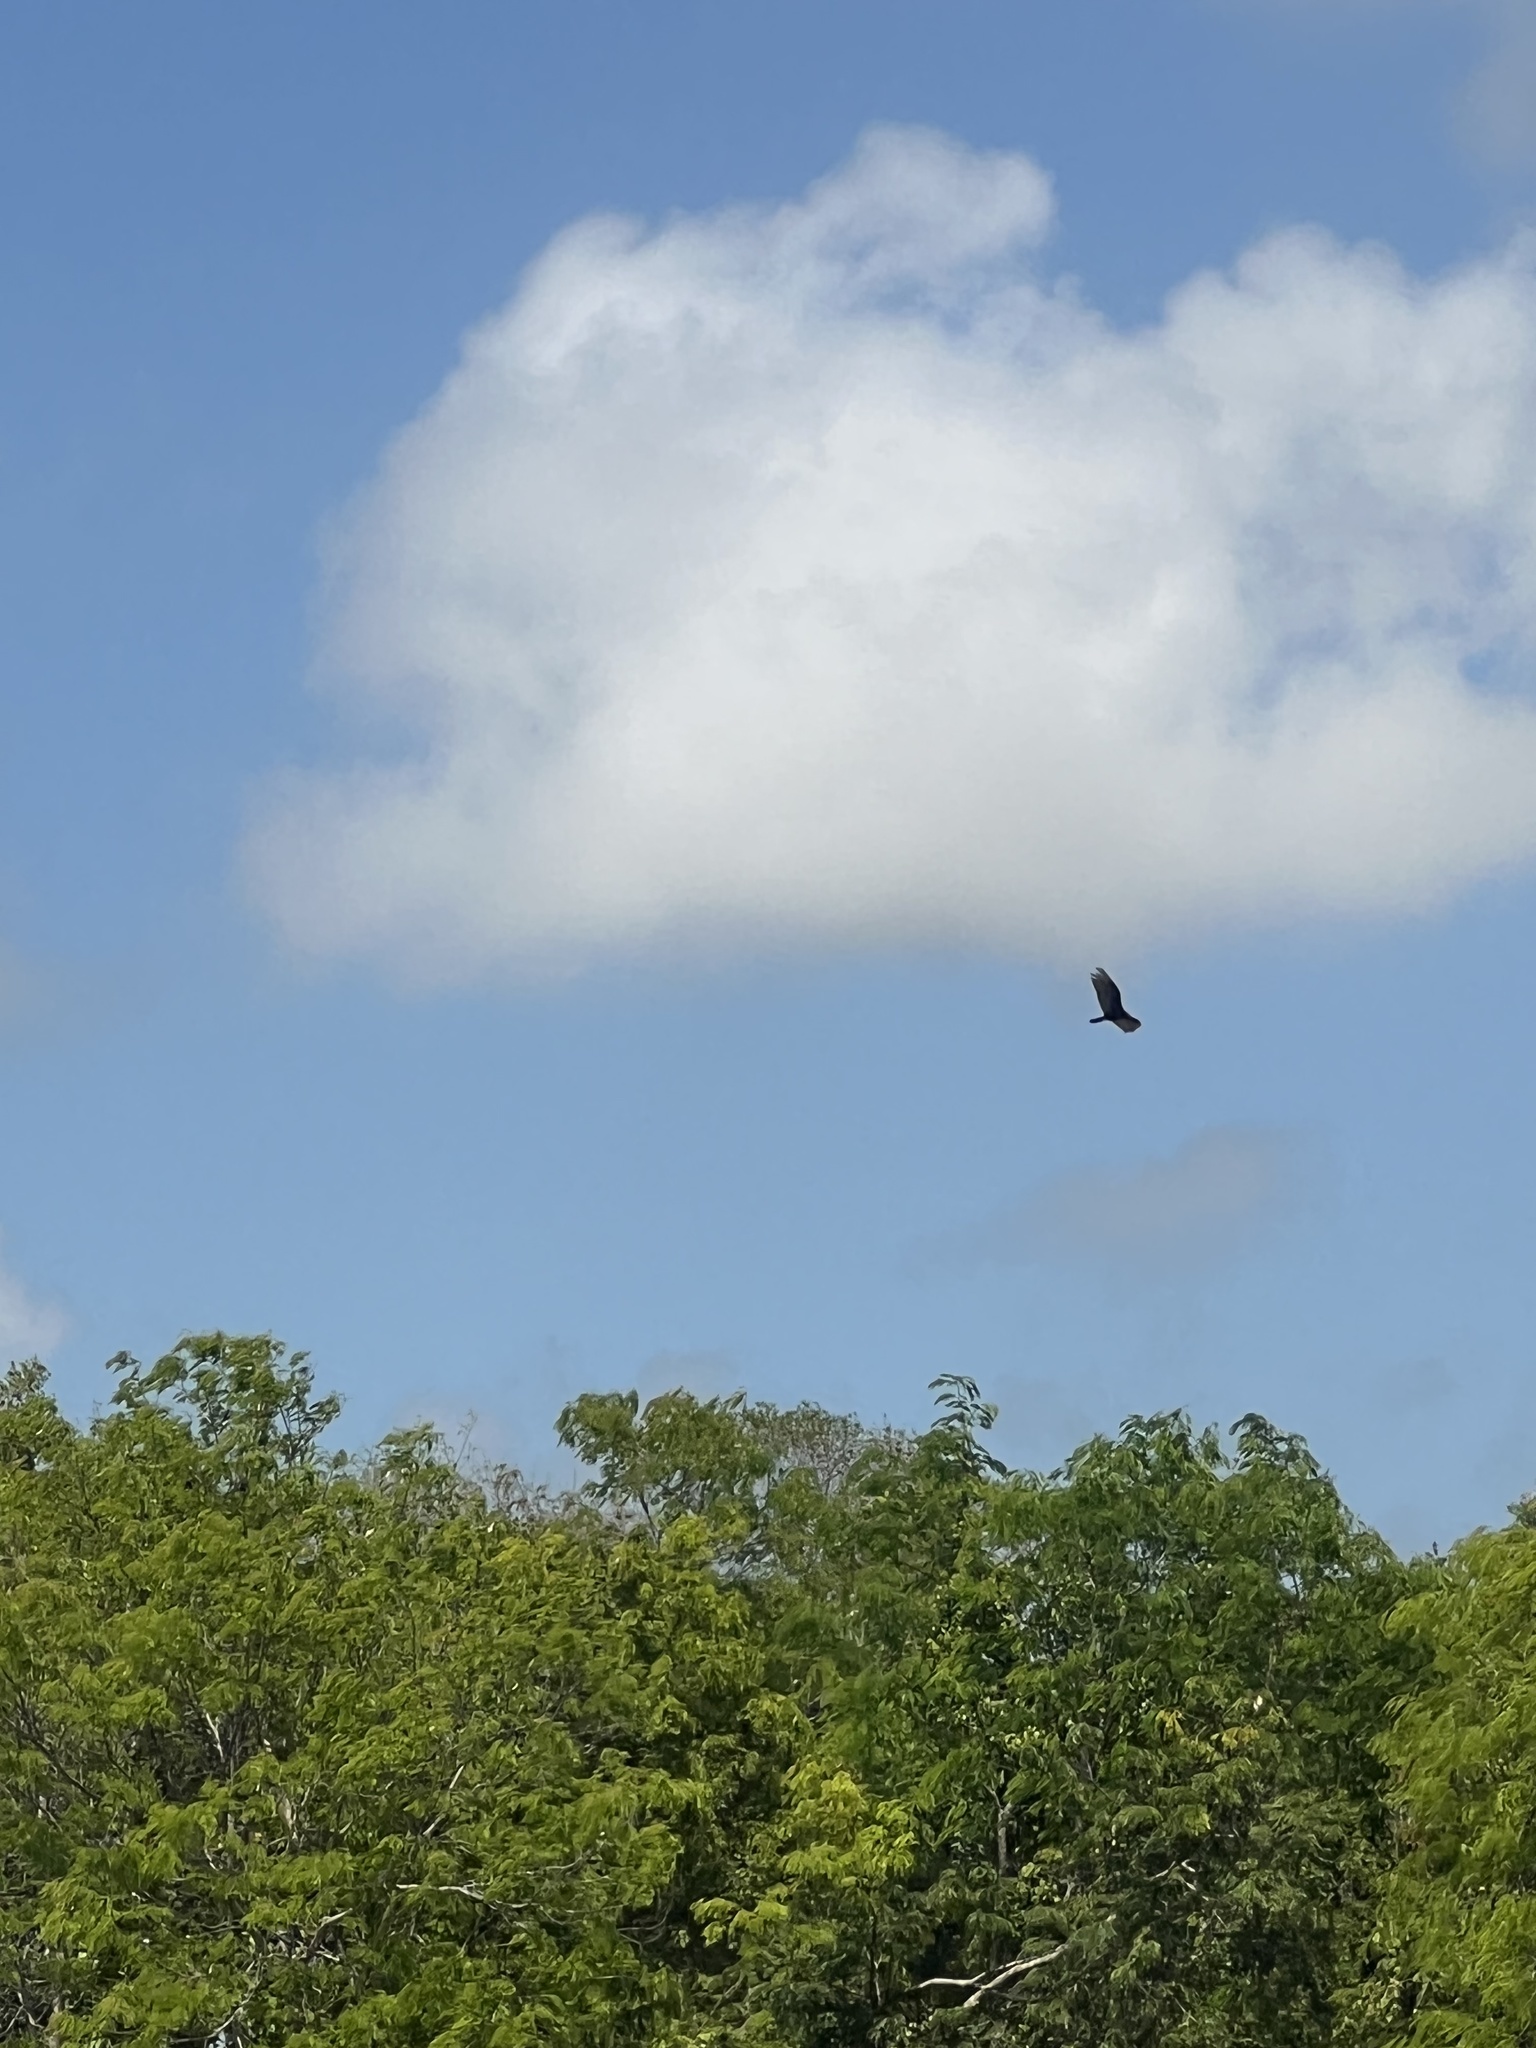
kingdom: Animalia
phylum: Chordata
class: Aves
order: Accipitriformes
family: Cathartidae
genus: Cathartes
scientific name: Cathartes aura
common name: Turkey vulture
